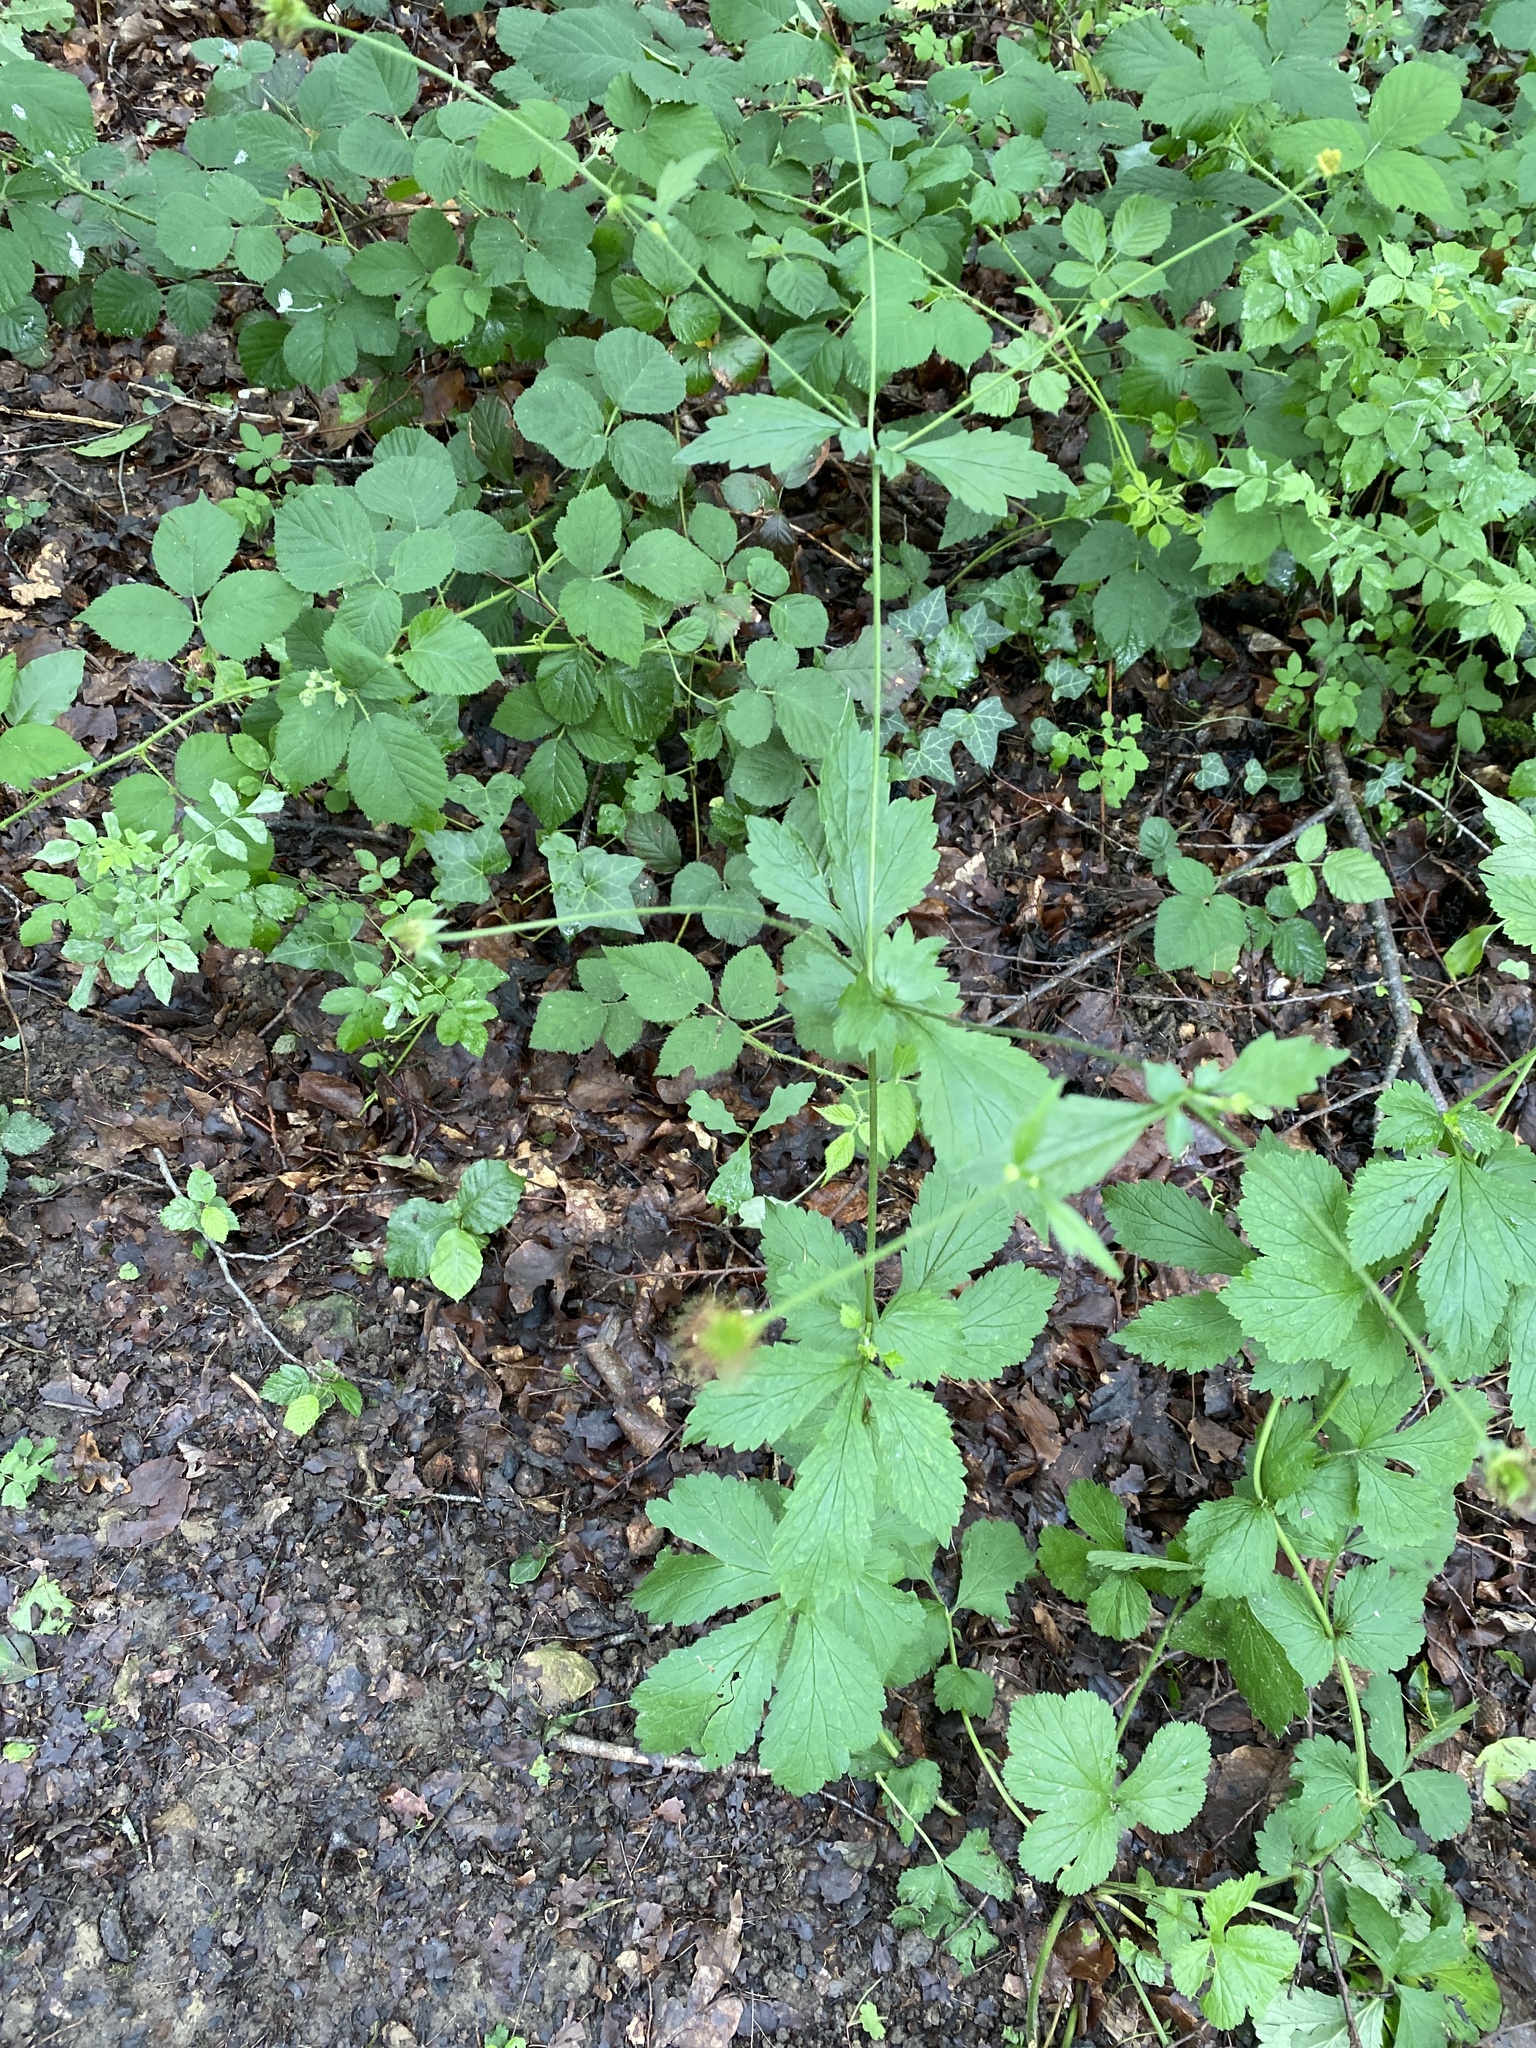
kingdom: Plantae
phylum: Tracheophyta
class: Magnoliopsida
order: Rosales
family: Rosaceae
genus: Geum
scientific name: Geum urbanum
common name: Wood avens
